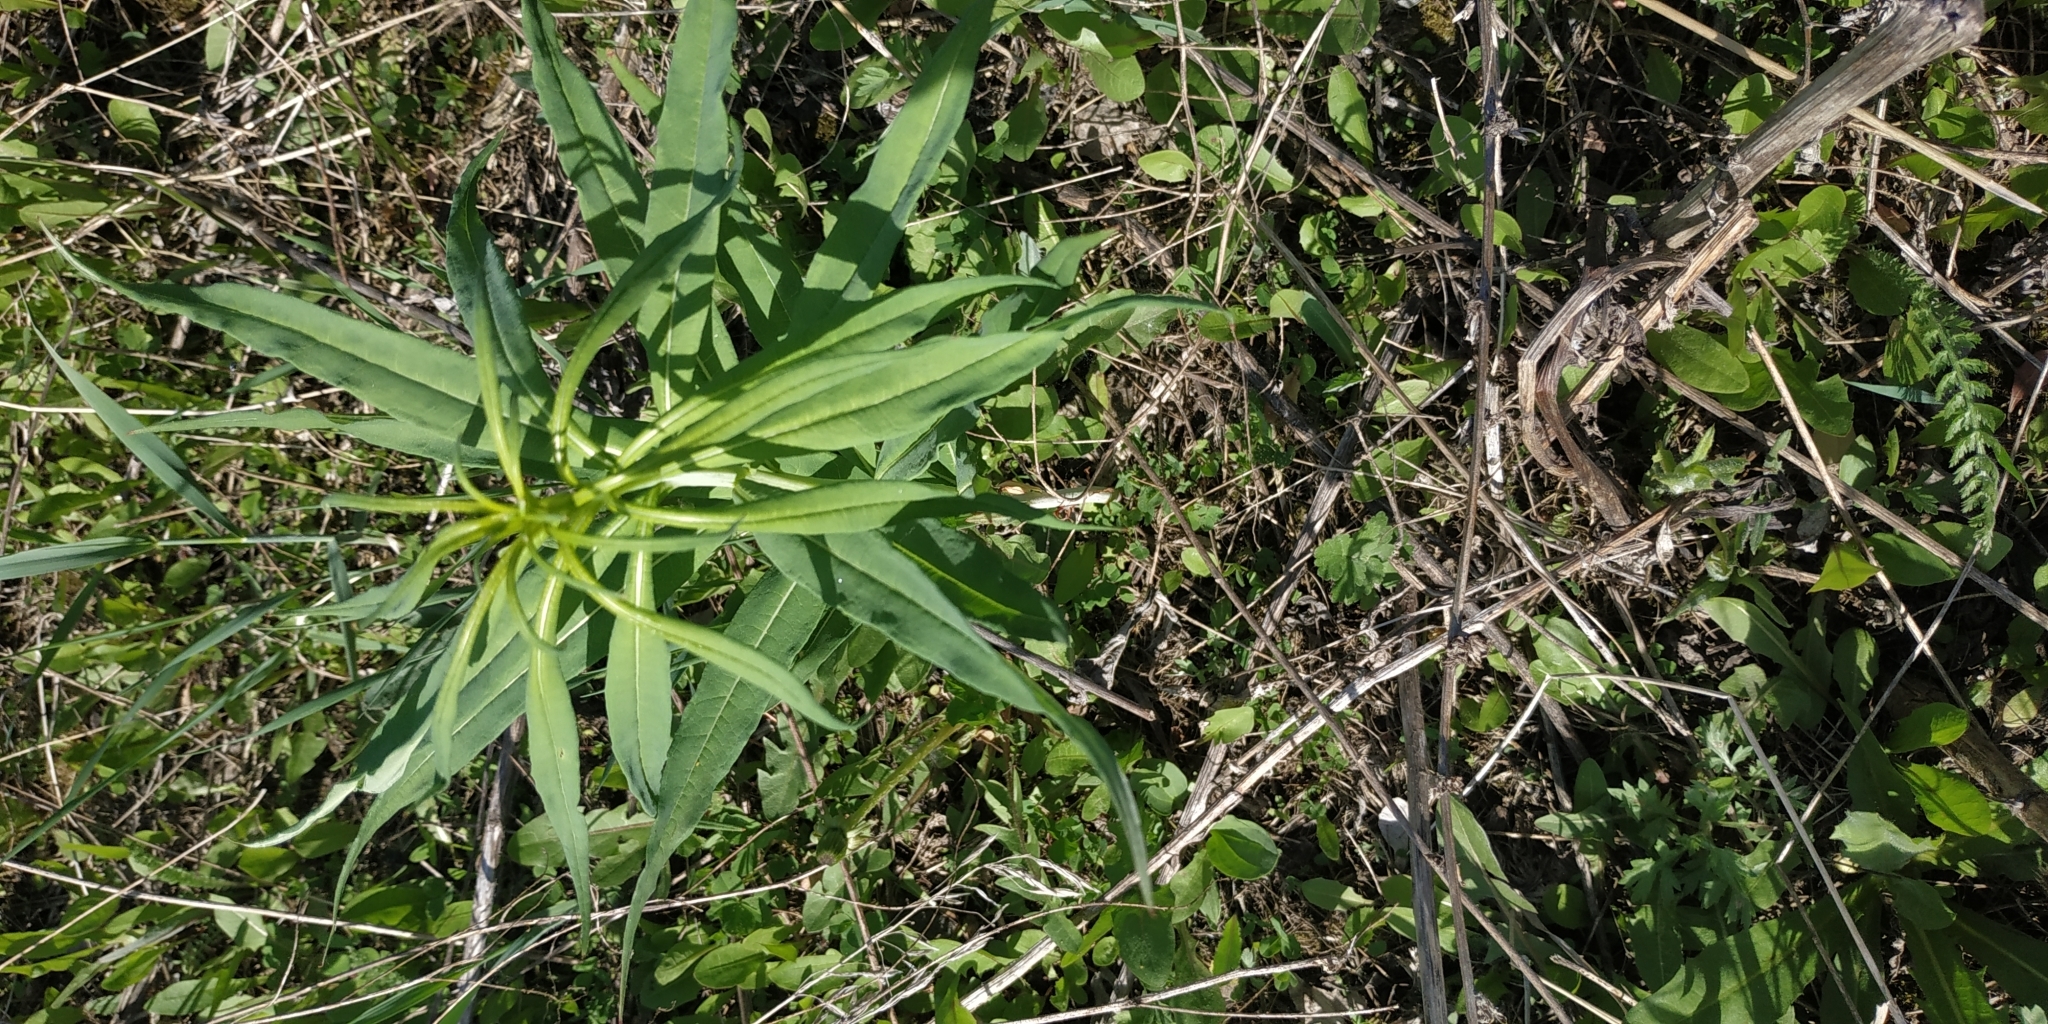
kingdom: Plantae
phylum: Tracheophyta
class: Magnoliopsida
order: Myrtales
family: Onagraceae
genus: Chamaenerion
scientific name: Chamaenerion angustifolium
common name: Fireweed
